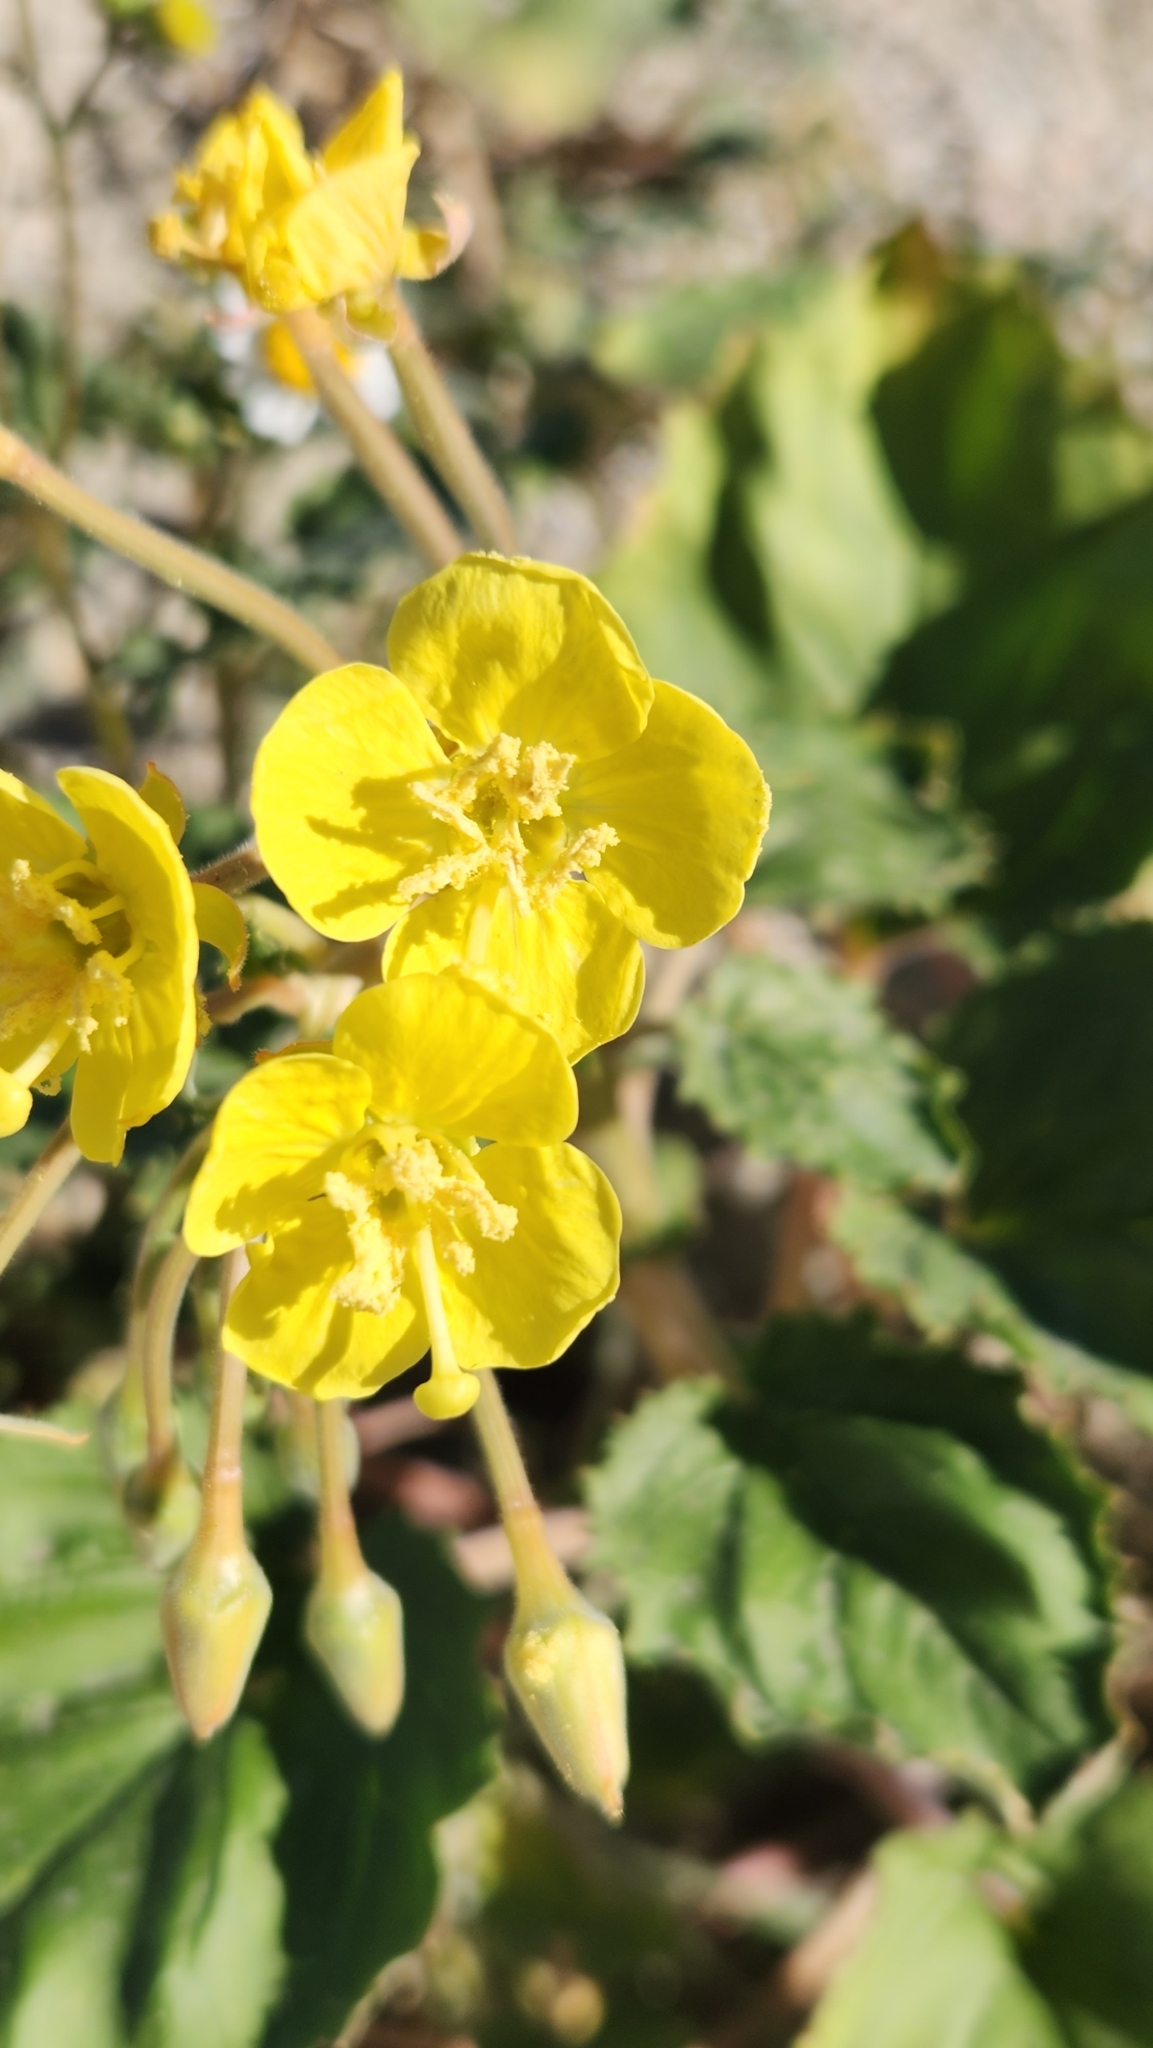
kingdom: Plantae
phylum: Tracheophyta
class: Magnoliopsida
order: Myrtales
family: Onagraceae
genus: Chylismia
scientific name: Chylismia cardiophylla
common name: Heartleaf suncup
